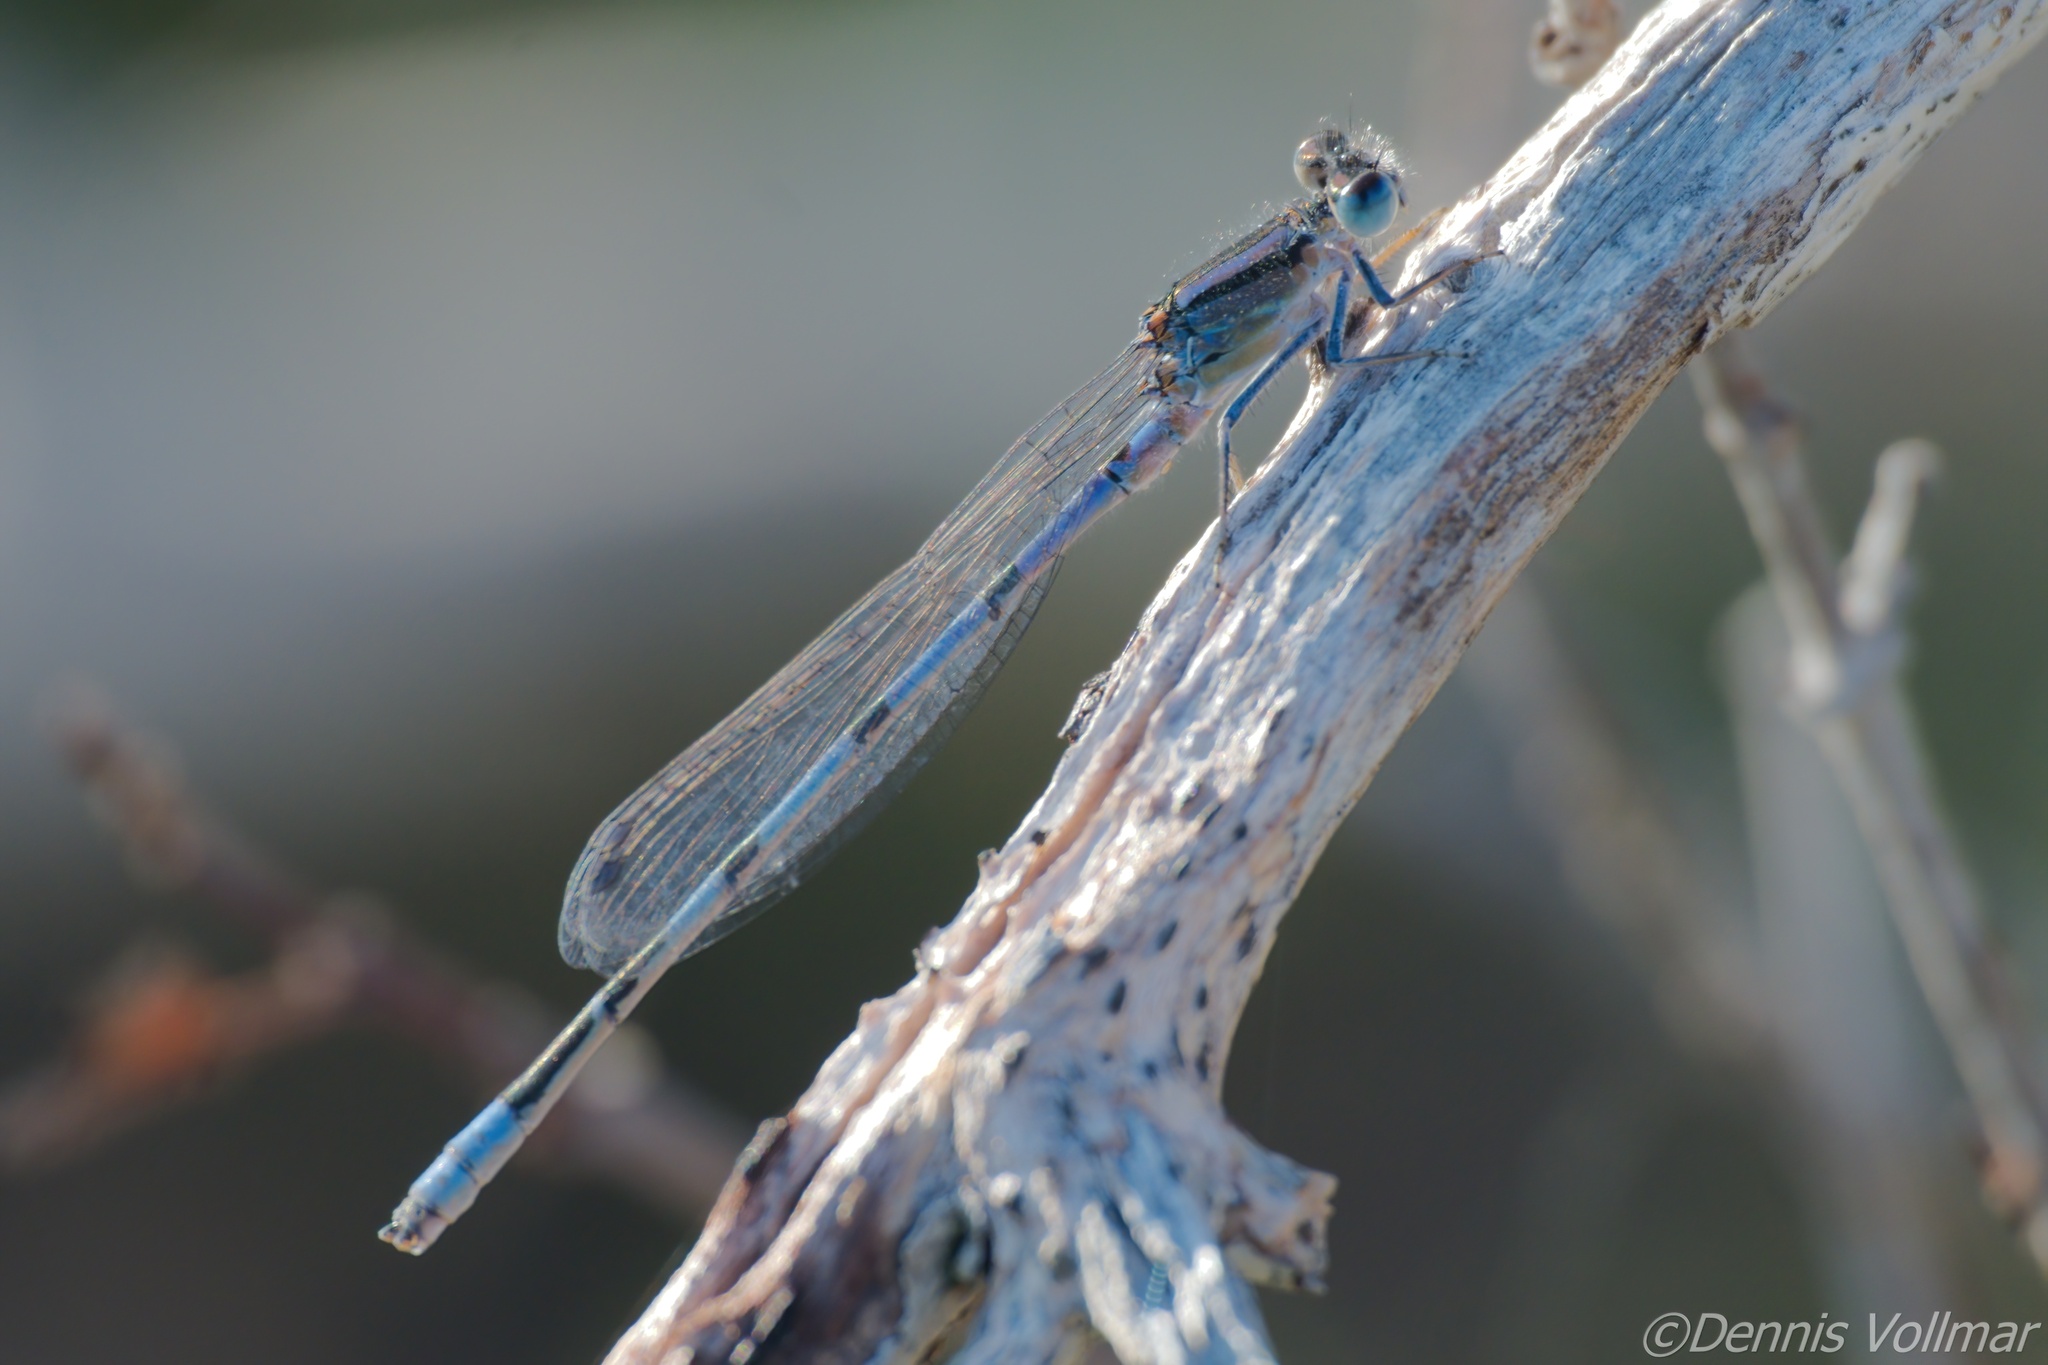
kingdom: Animalia
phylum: Arthropoda
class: Insecta
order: Odonata
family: Coenagrionidae
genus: Enallagma
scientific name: Enallagma civile
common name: Damselfly
